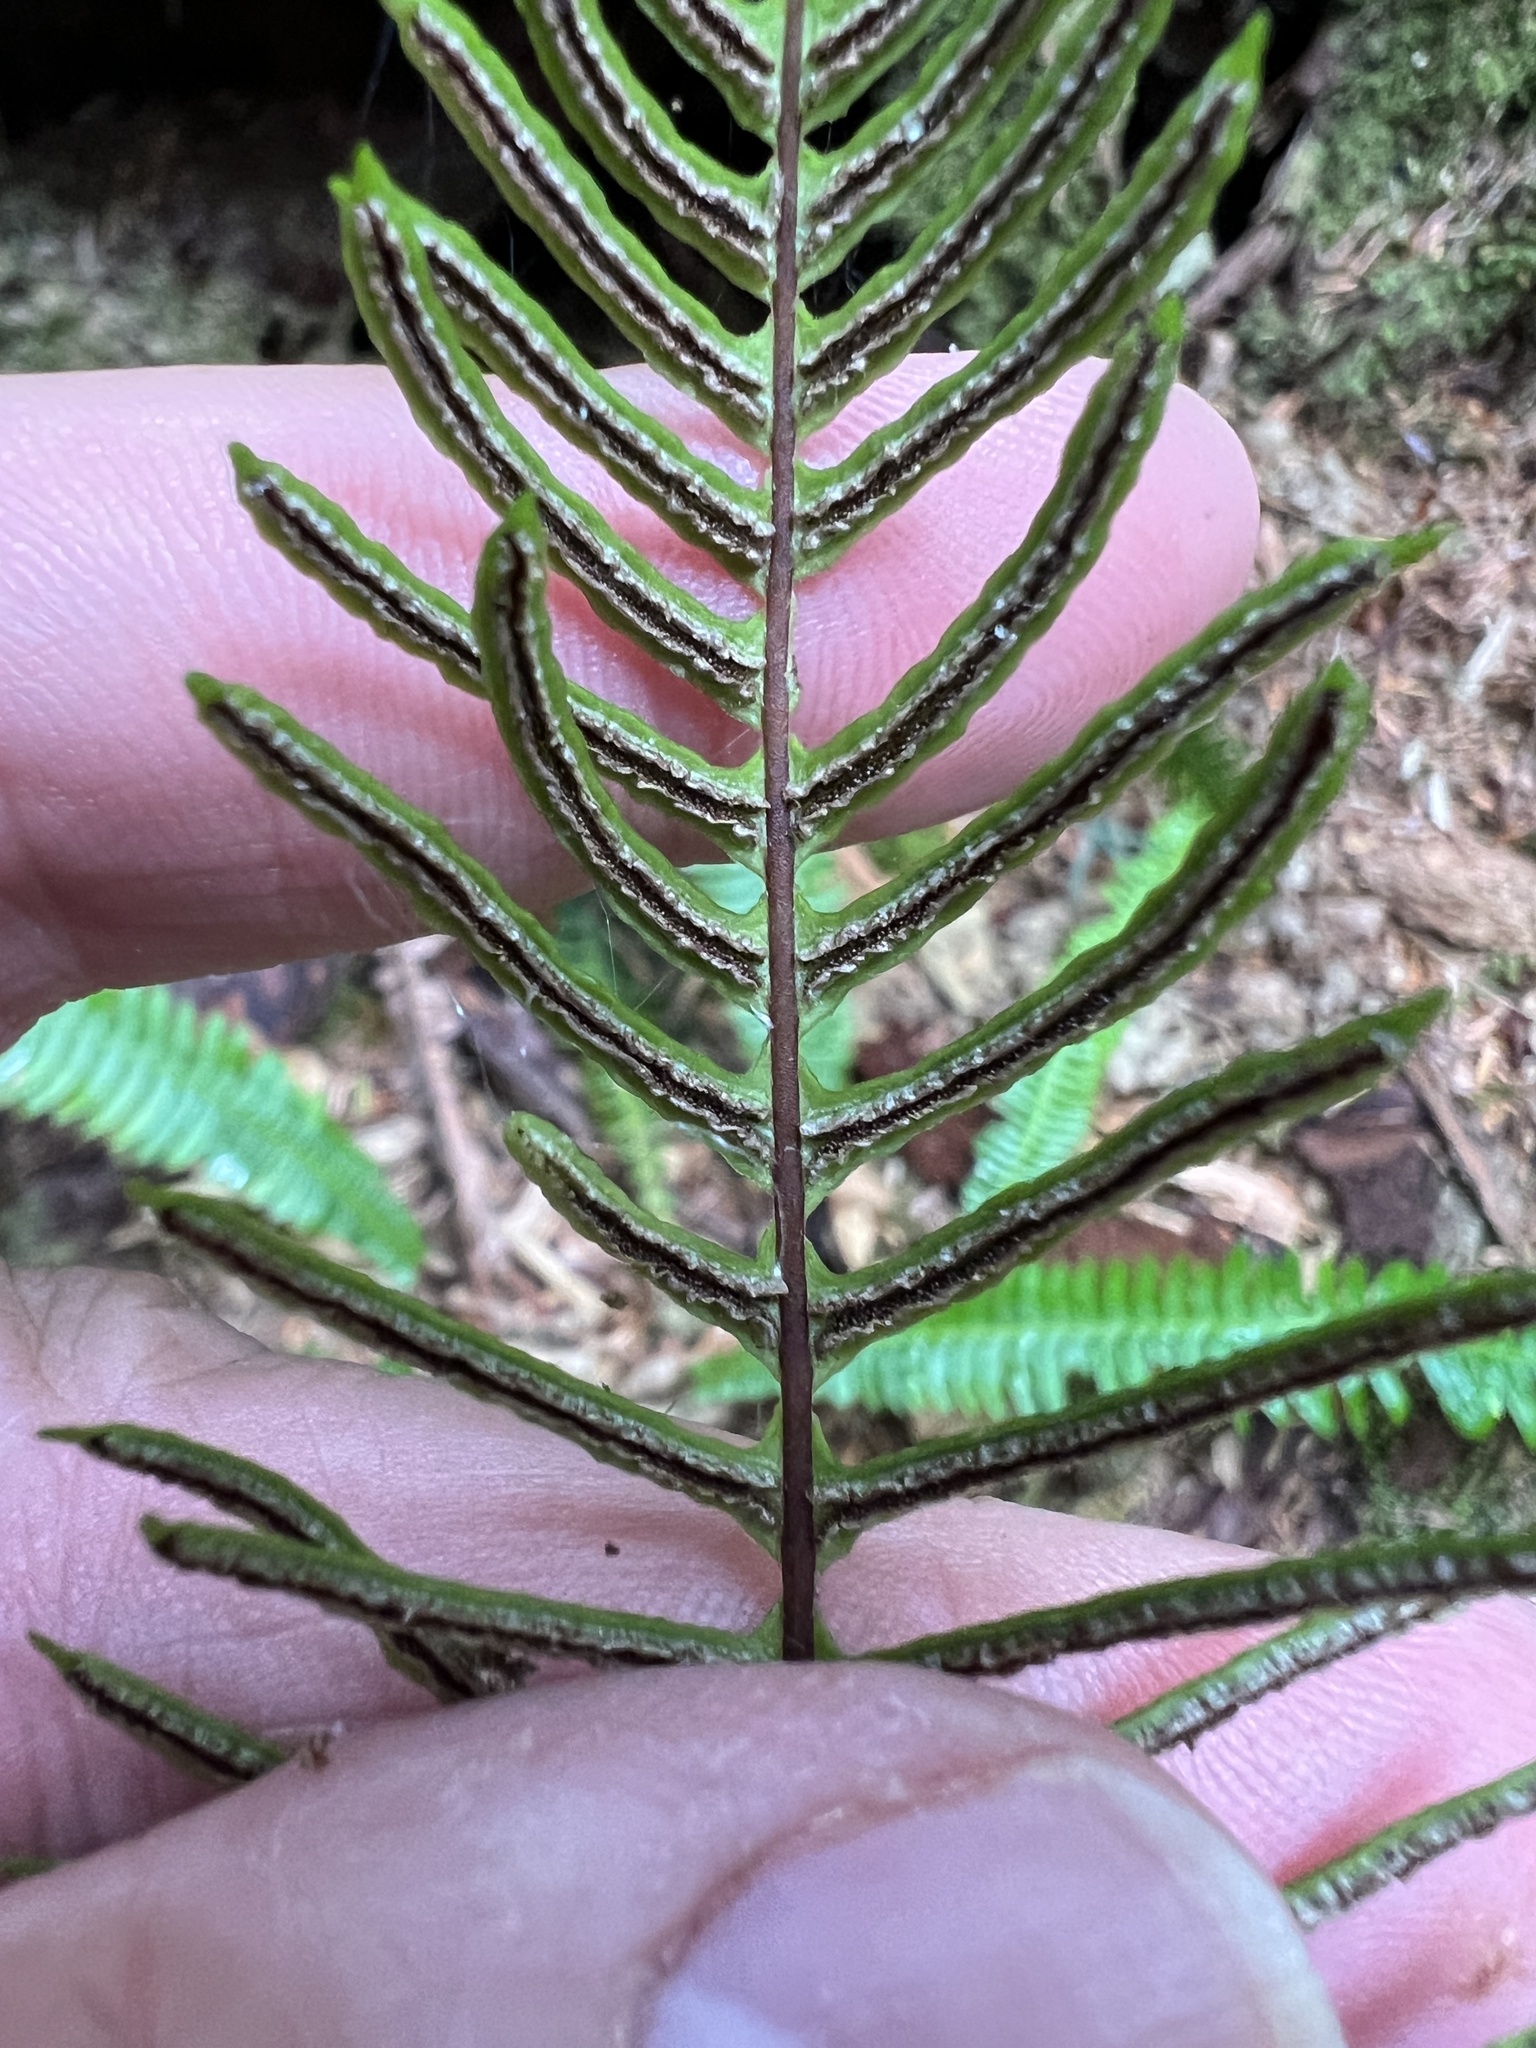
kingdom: Plantae
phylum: Tracheophyta
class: Polypodiopsida
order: Polypodiales
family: Blechnaceae
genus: Struthiopteris
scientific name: Struthiopteris spicant
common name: Deer fern
